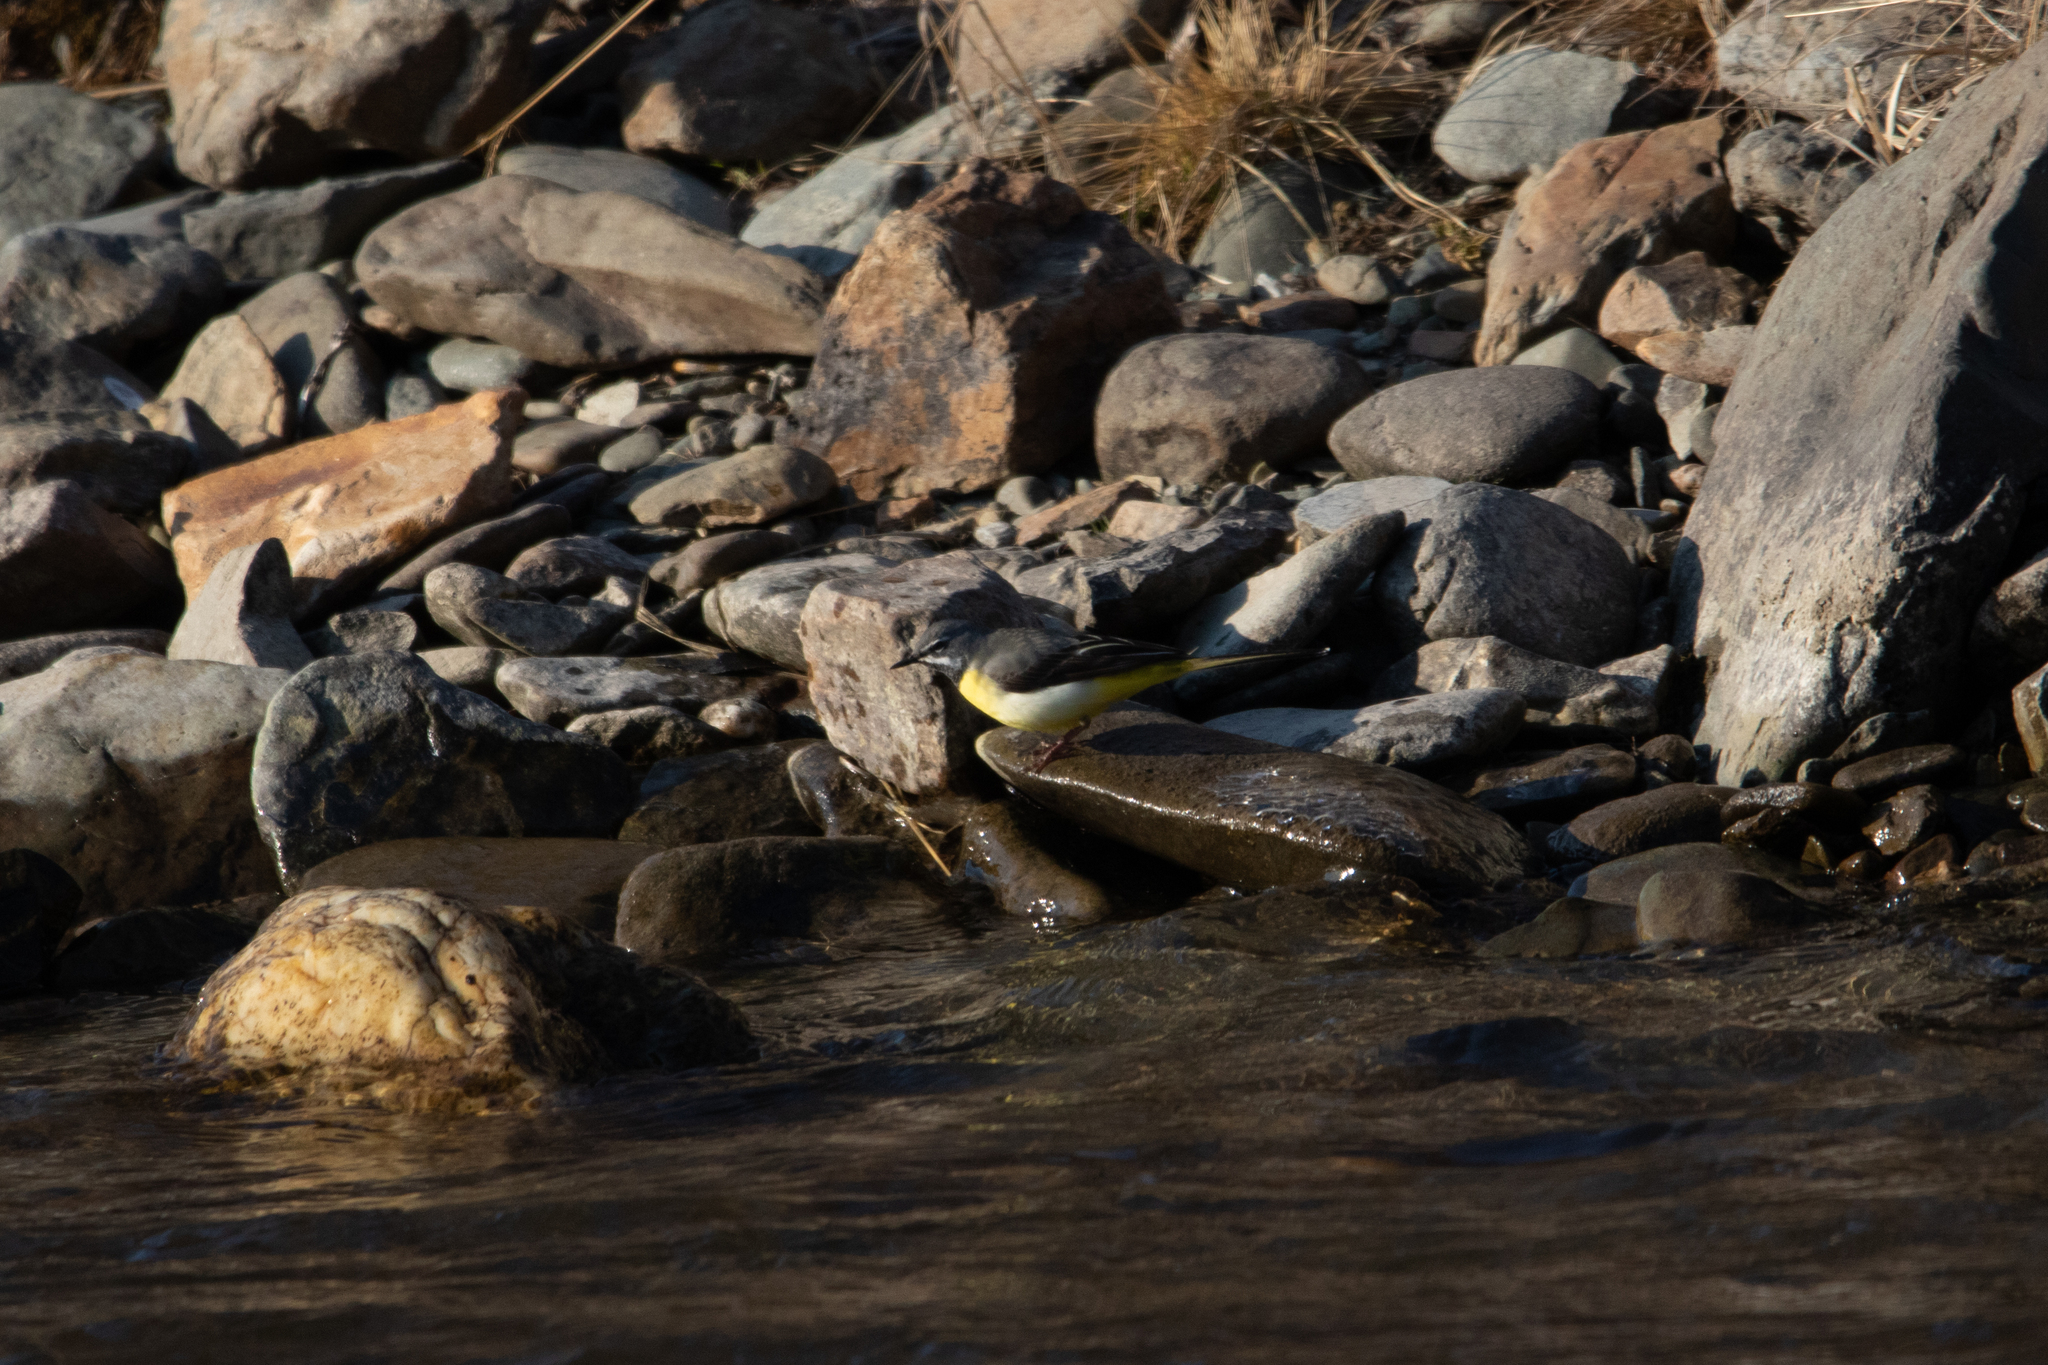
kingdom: Animalia
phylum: Chordata
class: Aves
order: Passeriformes
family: Motacillidae
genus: Motacilla
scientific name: Motacilla cinerea
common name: Grey wagtail
